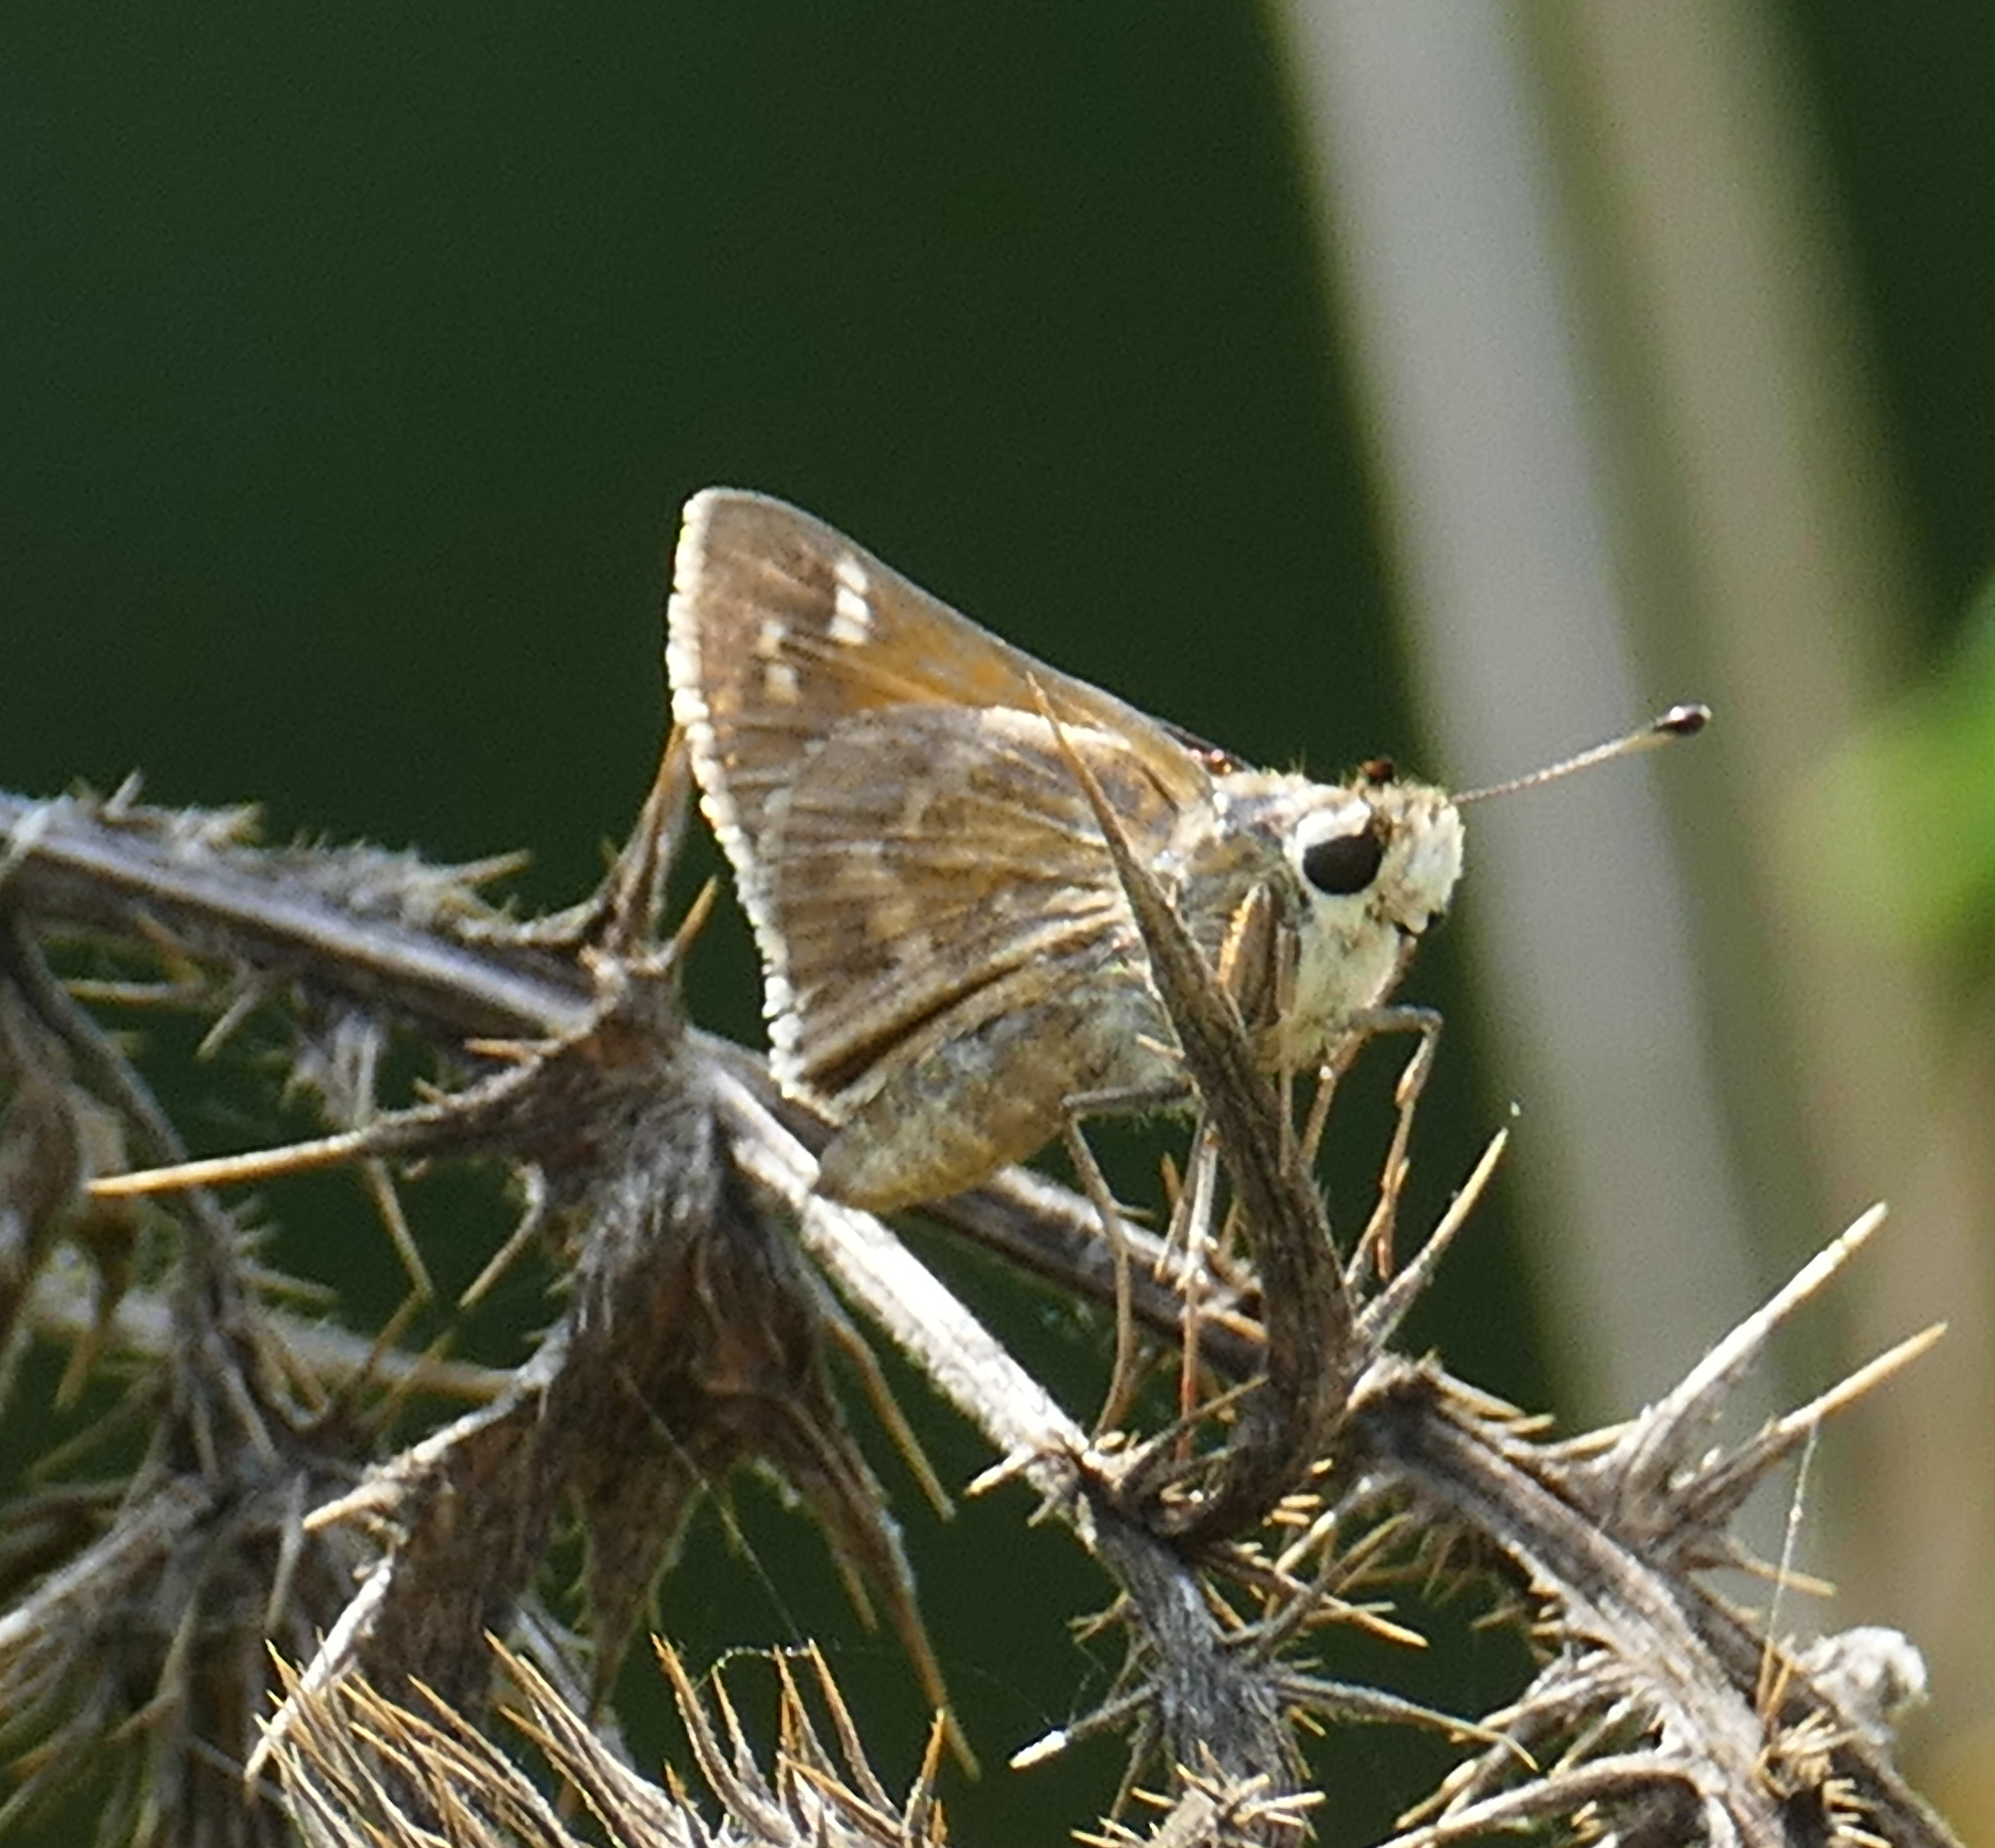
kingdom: Animalia
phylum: Arthropoda
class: Insecta
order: Lepidoptera
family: Hesperiidae
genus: Atalopedes
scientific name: Atalopedes
